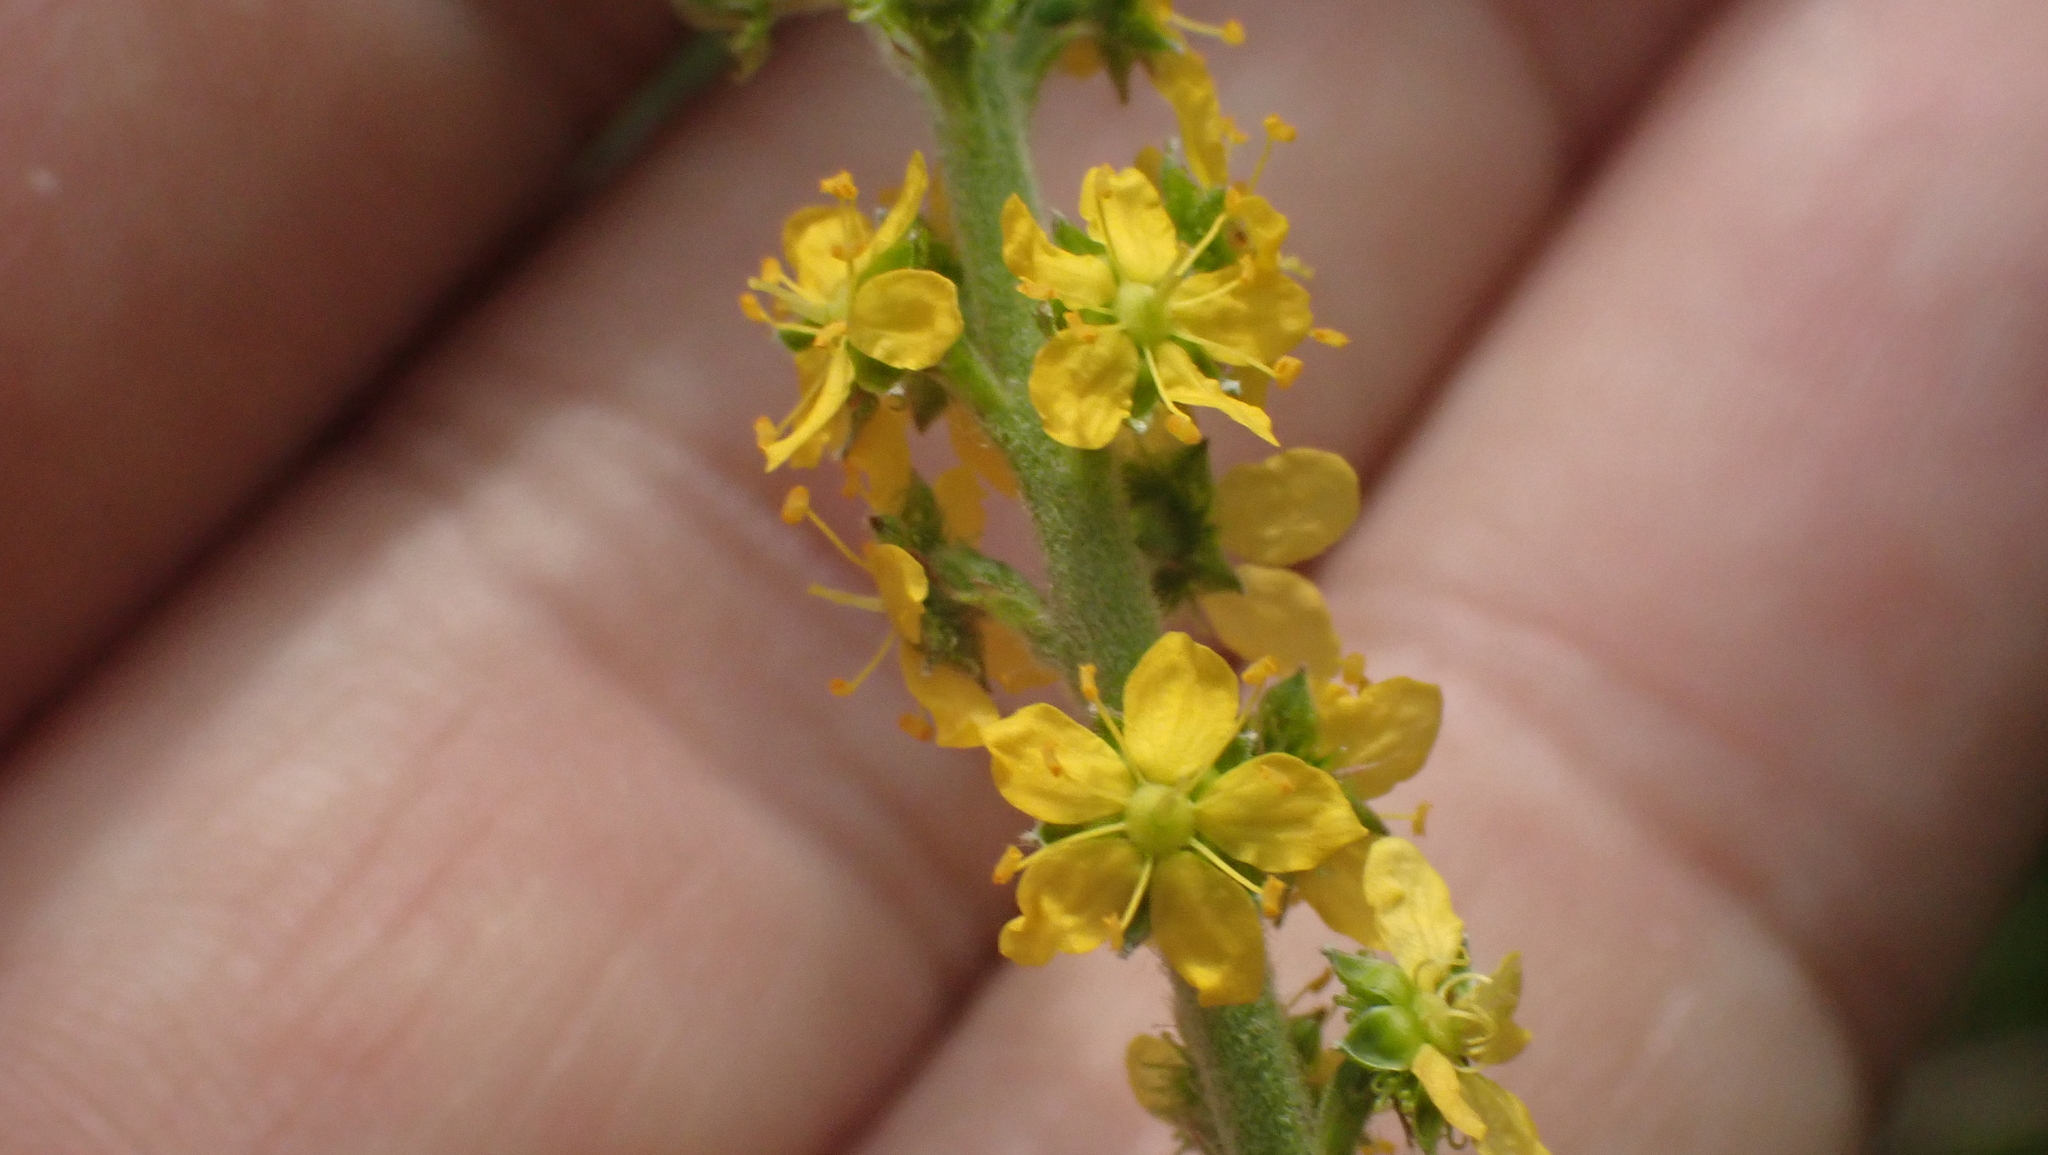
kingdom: Plantae
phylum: Tracheophyta
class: Magnoliopsida
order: Rosales
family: Rosaceae
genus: Agrimonia
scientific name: Agrimonia parviflora
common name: Harvest-lice
